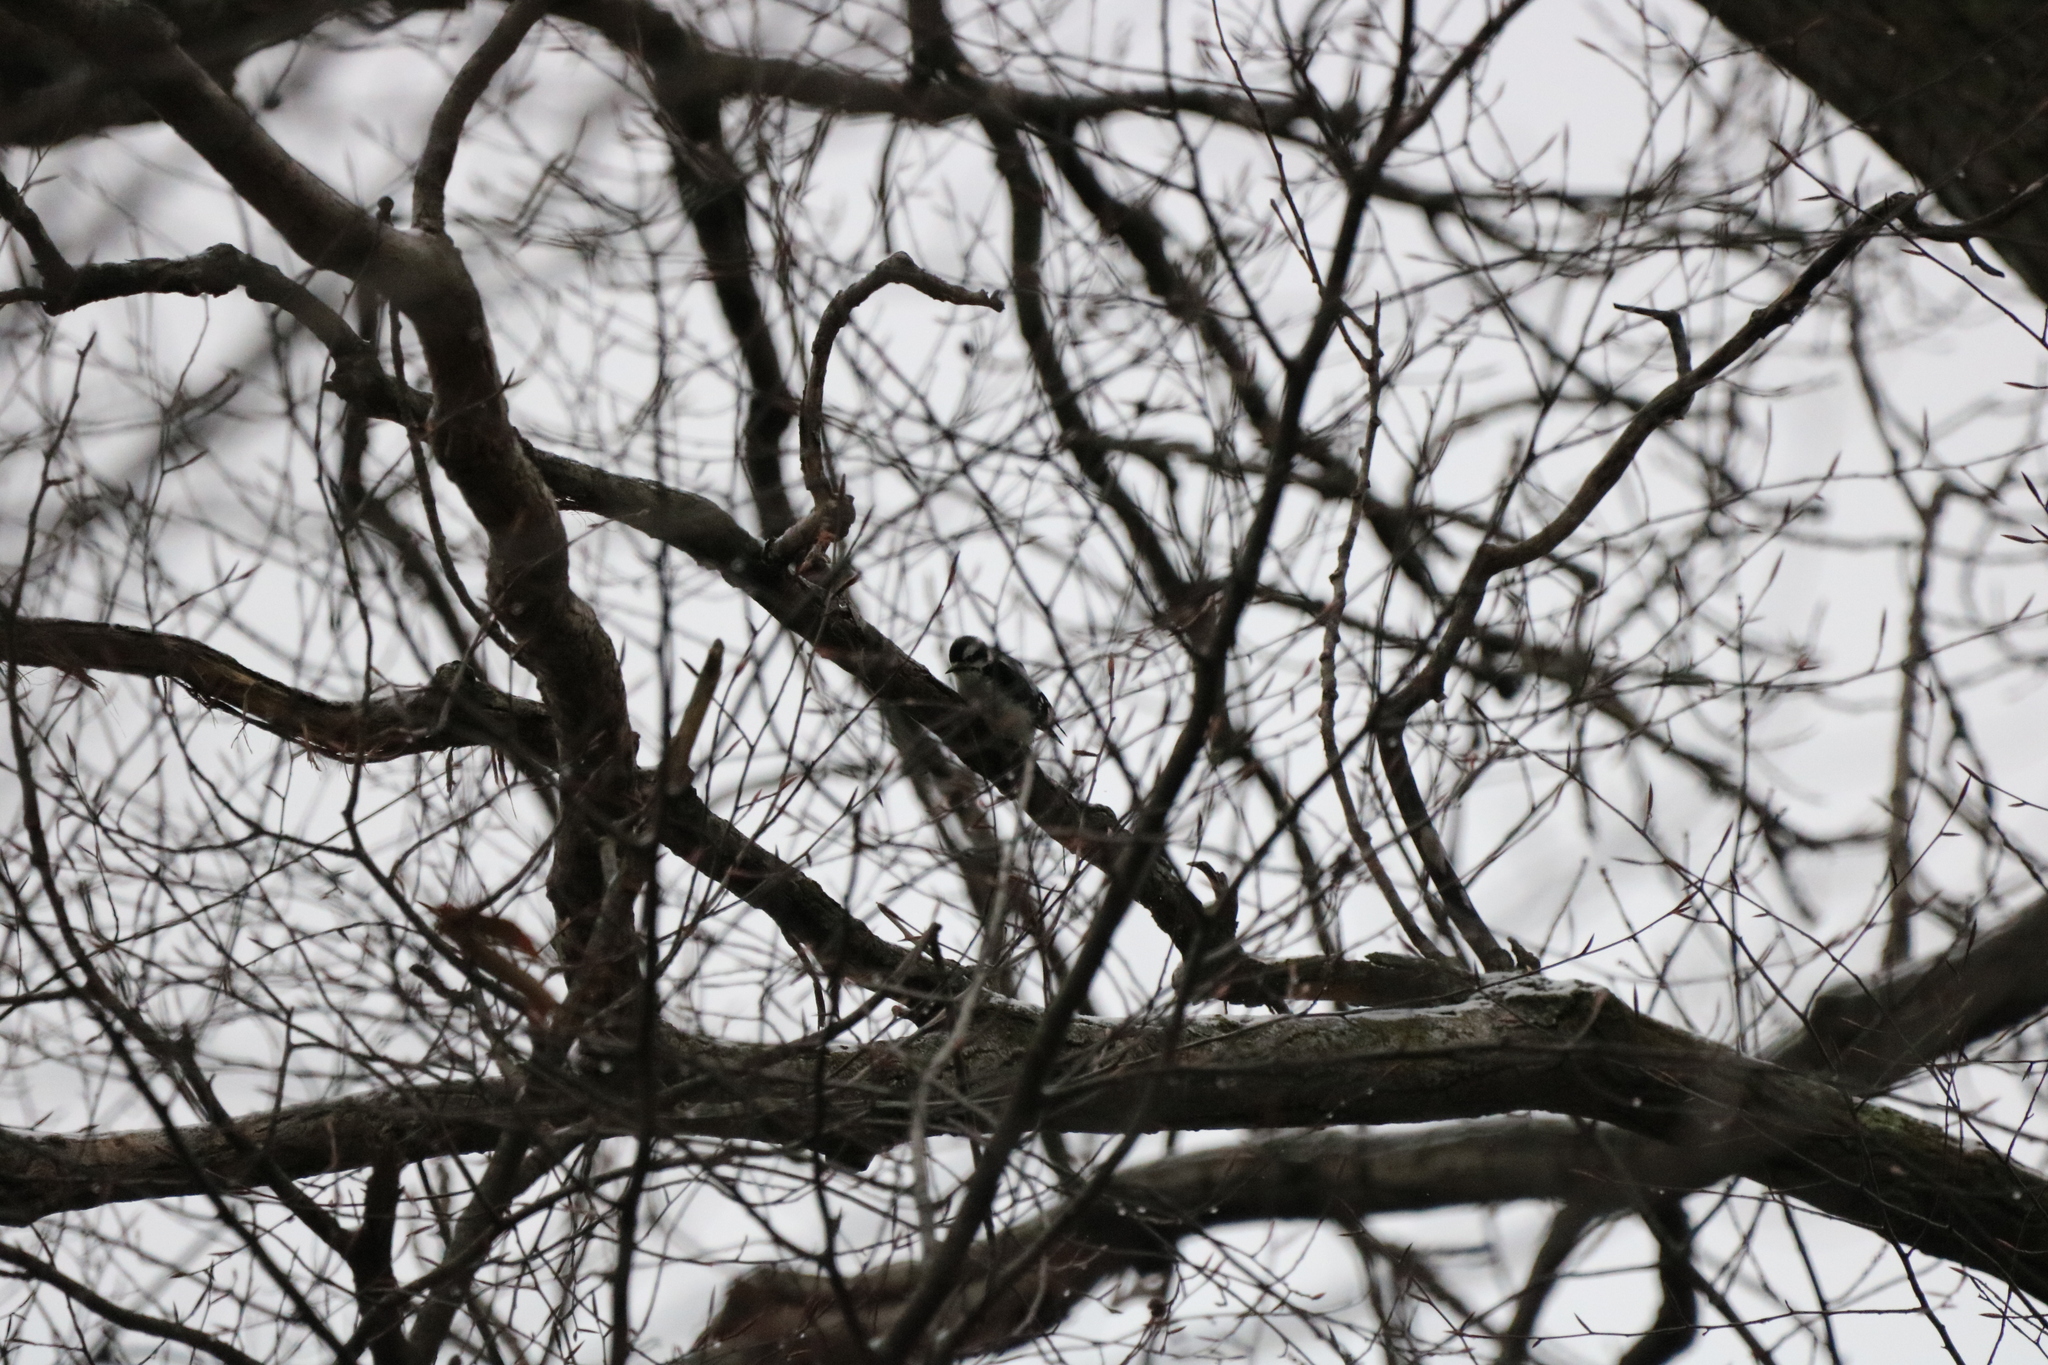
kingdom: Animalia
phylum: Chordata
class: Aves
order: Piciformes
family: Picidae
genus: Dryobates
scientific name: Dryobates pubescens
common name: Downy woodpecker
